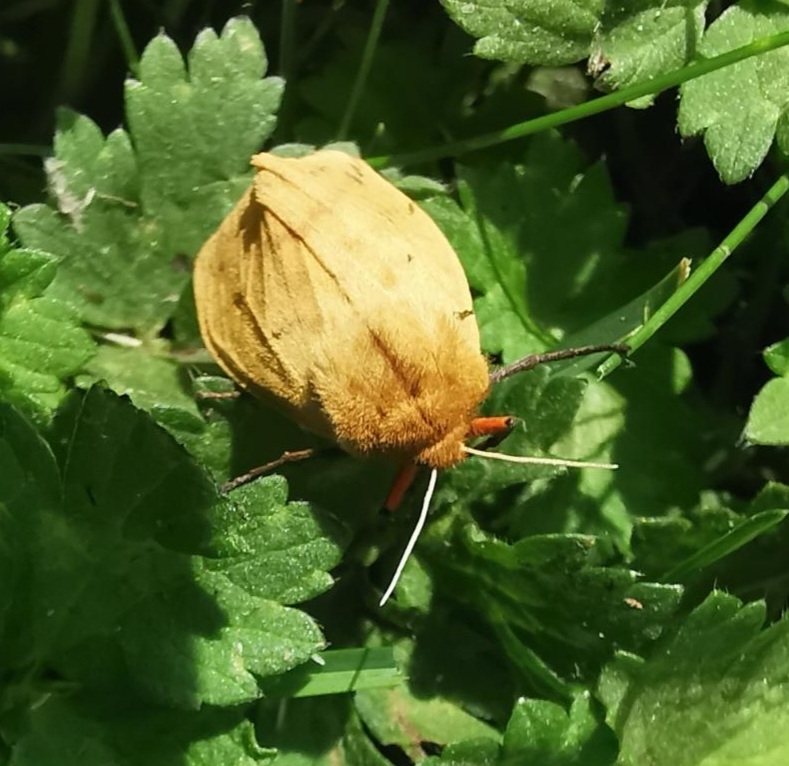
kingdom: Animalia
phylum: Arthropoda
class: Insecta
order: Lepidoptera
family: Erebidae
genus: Pyrrharctia
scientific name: Pyrrharctia isabella
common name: Isabella tiger moth
